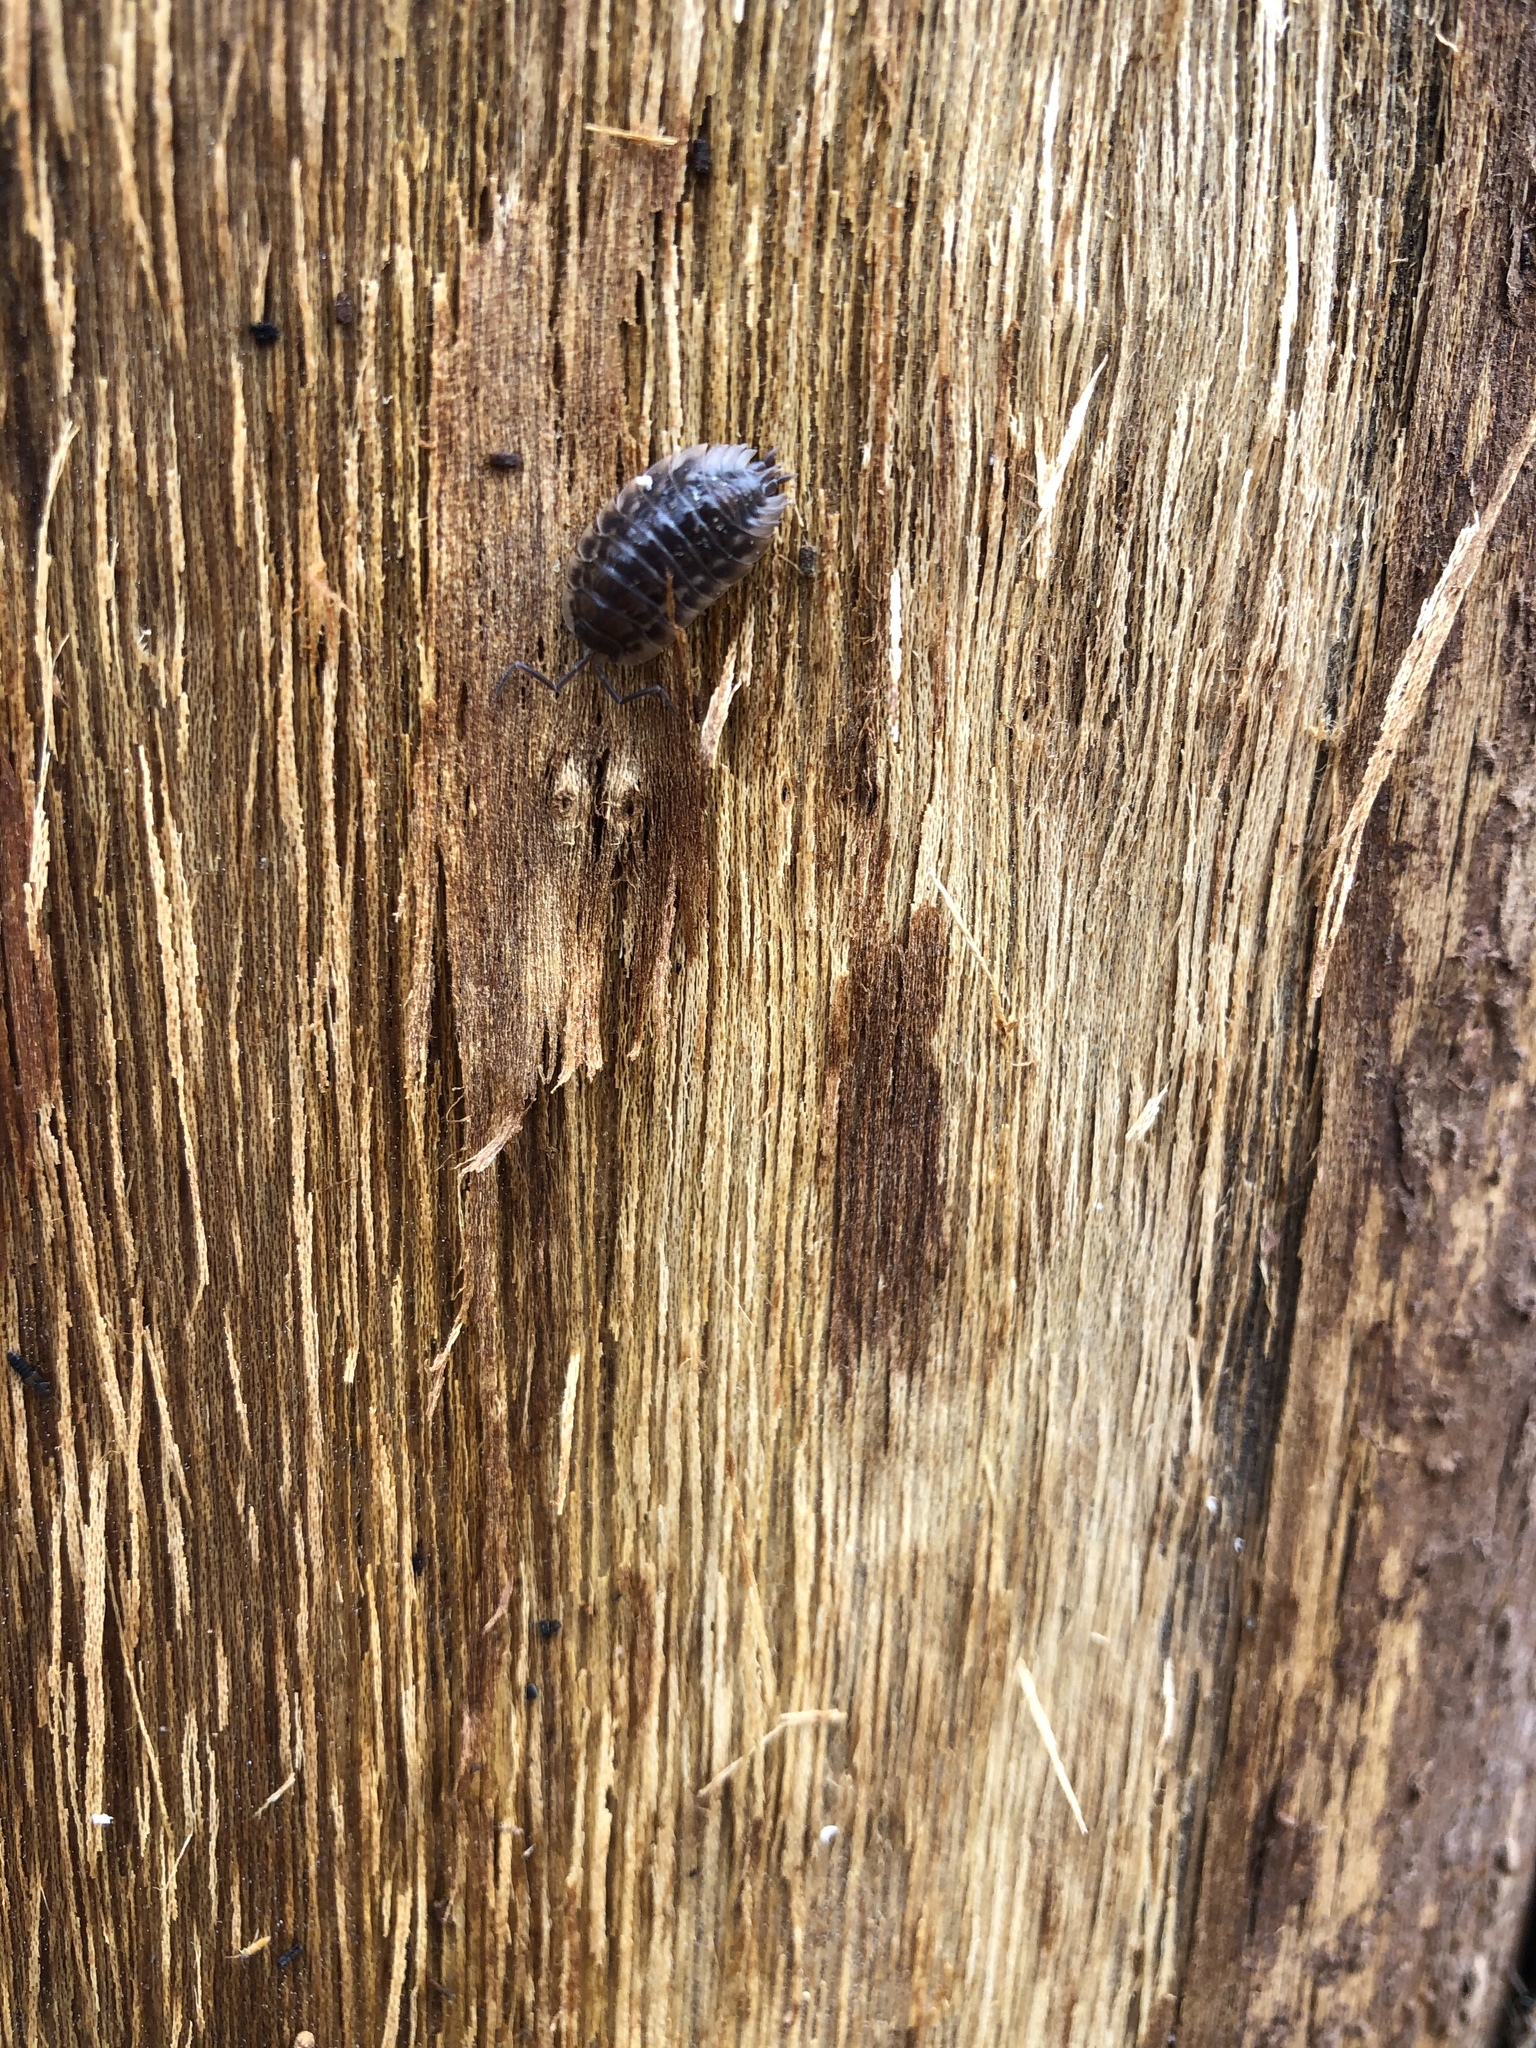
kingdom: Animalia
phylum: Arthropoda
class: Malacostraca
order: Isopoda
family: Oniscidae
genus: Oniscus
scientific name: Oniscus asellus
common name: Common shiny woodlouse
